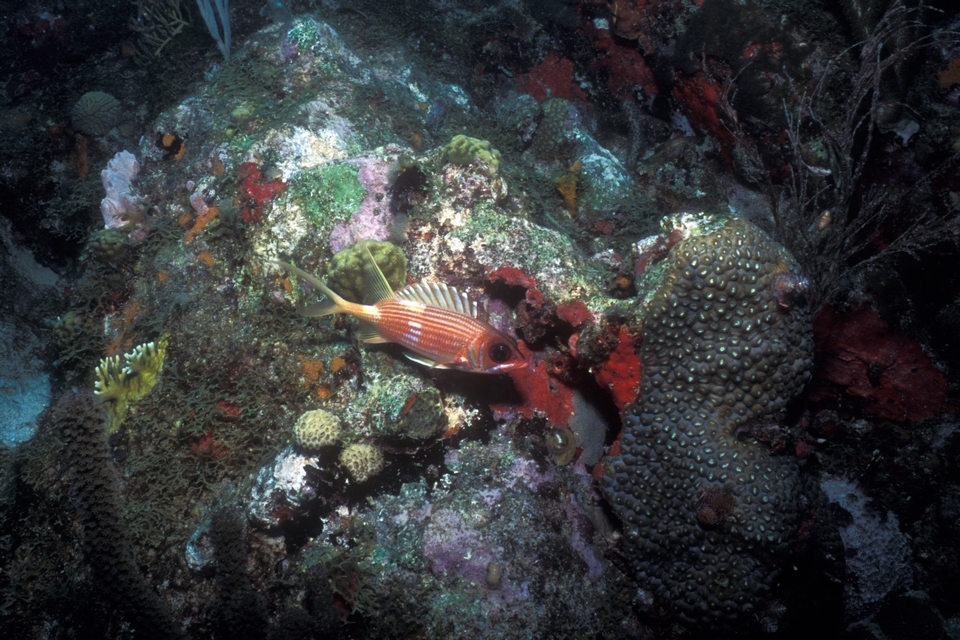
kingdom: Animalia
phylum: Chordata
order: Beryciformes
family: Holocentridae
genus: Holocentrus
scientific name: Holocentrus rufus
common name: Longspine squirrelfish
